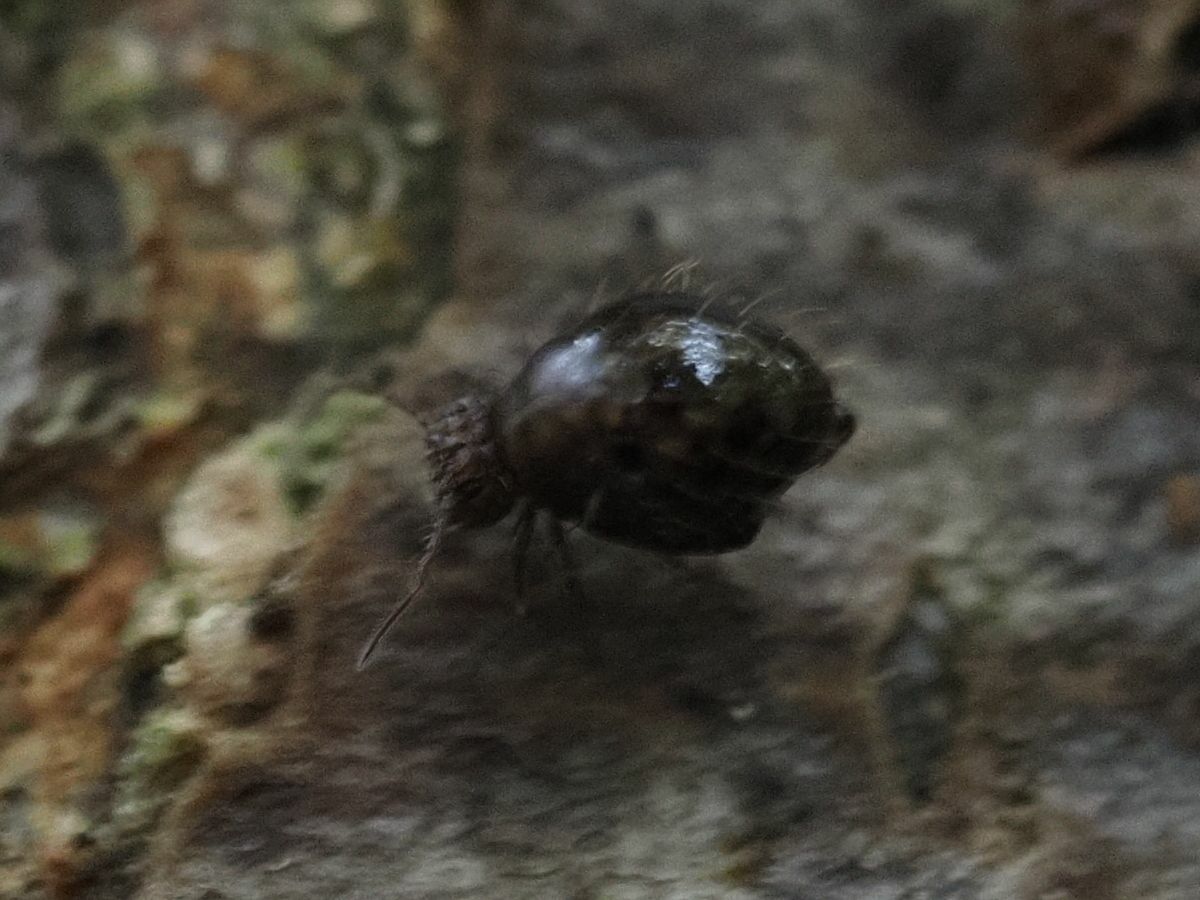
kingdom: Animalia
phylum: Arthropoda
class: Collembola
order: Symphypleona
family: Sminthuridae
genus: Allacma
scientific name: Allacma fusca
